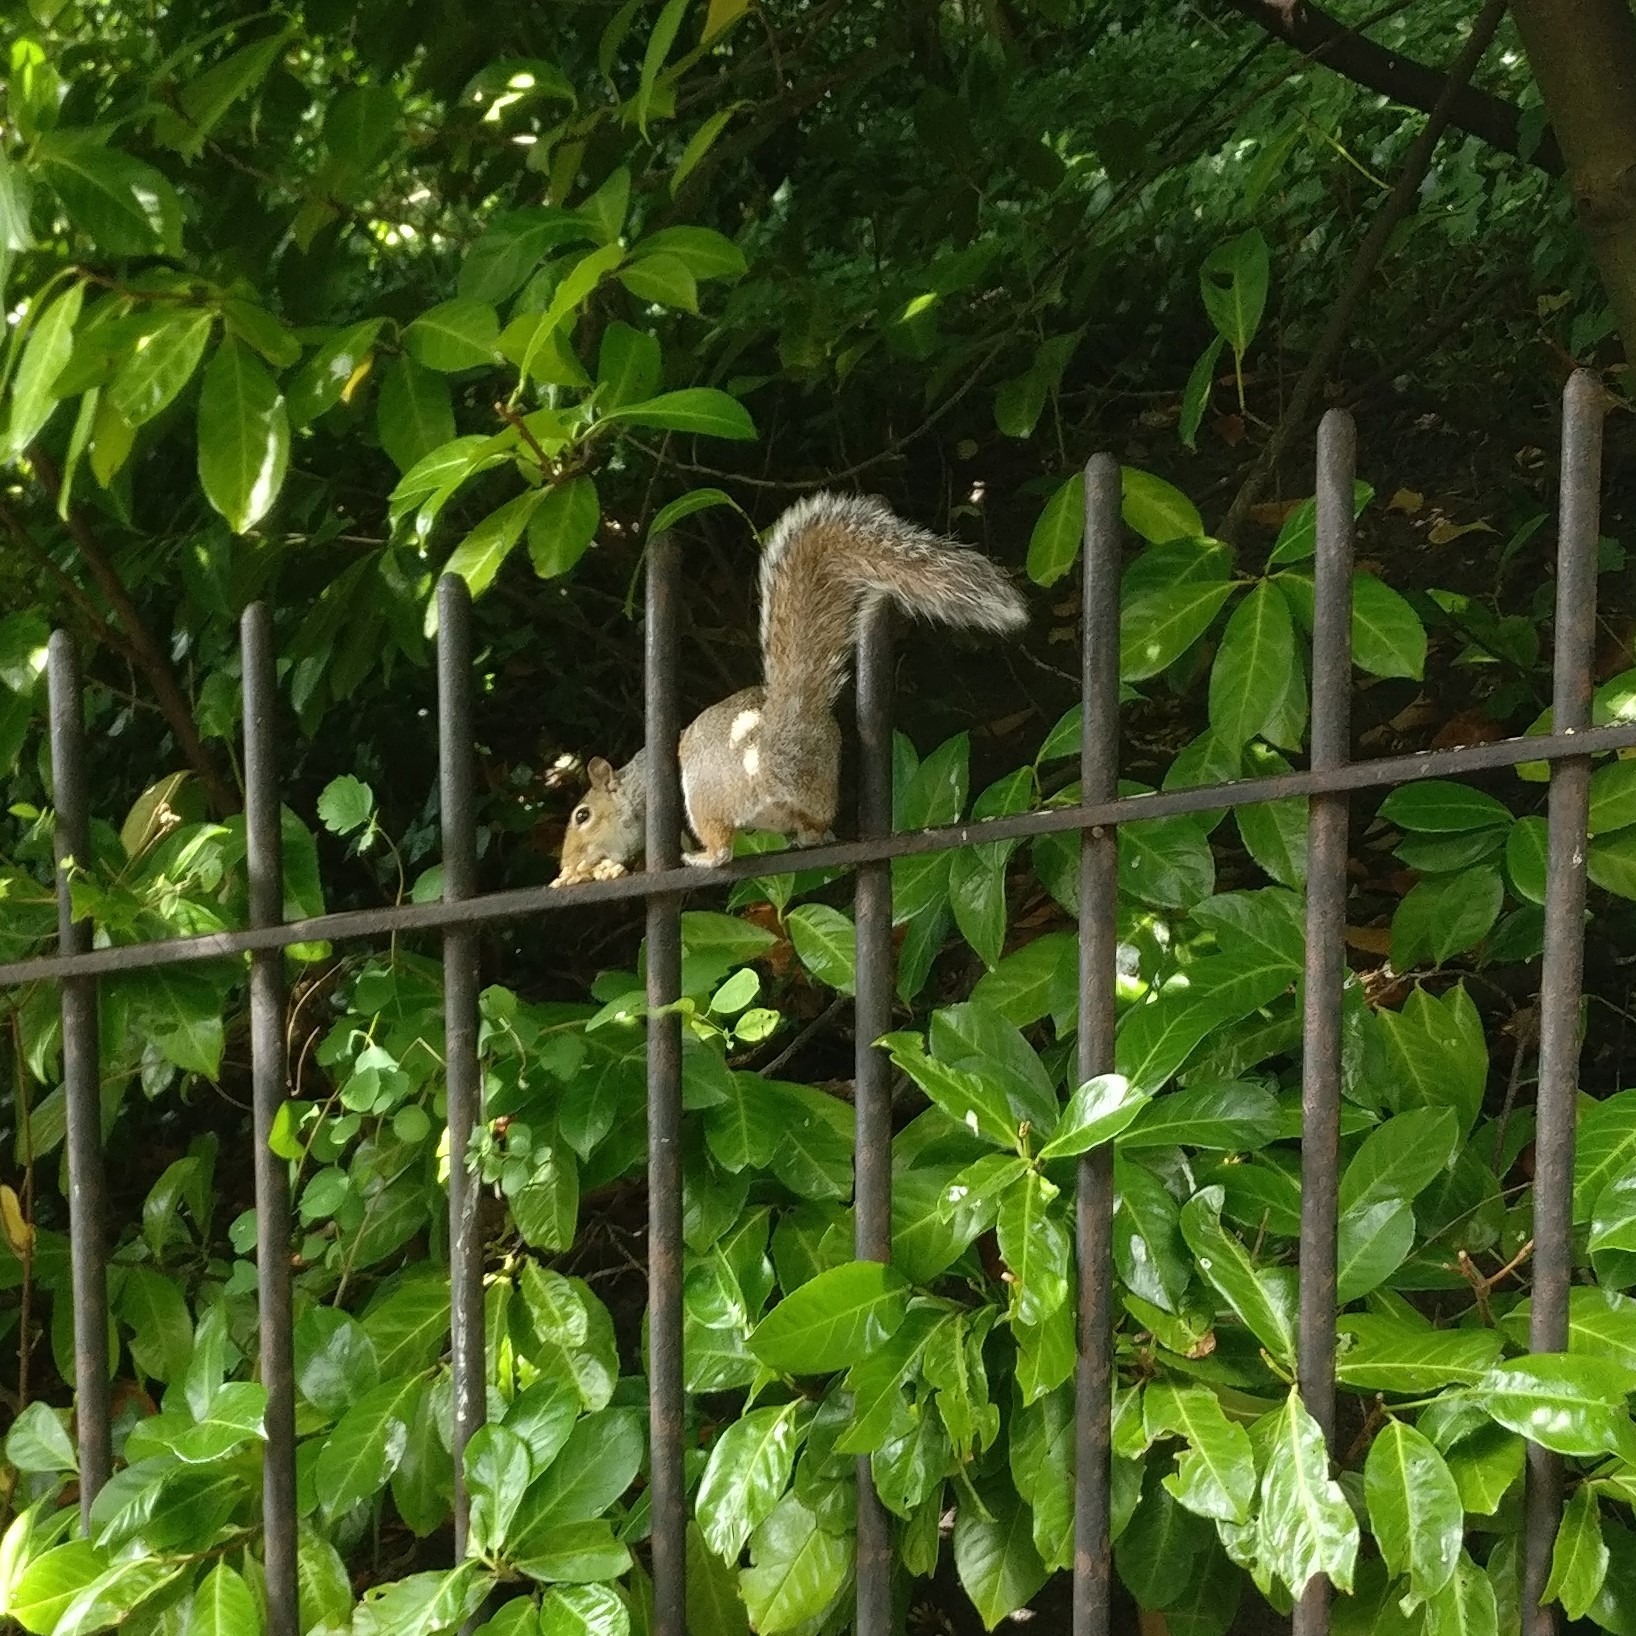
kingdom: Animalia
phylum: Chordata
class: Mammalia
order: Rodentia
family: Sciuridae
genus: Sciurus
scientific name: Sciurus carolinensis
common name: Eastern gray squirrel
